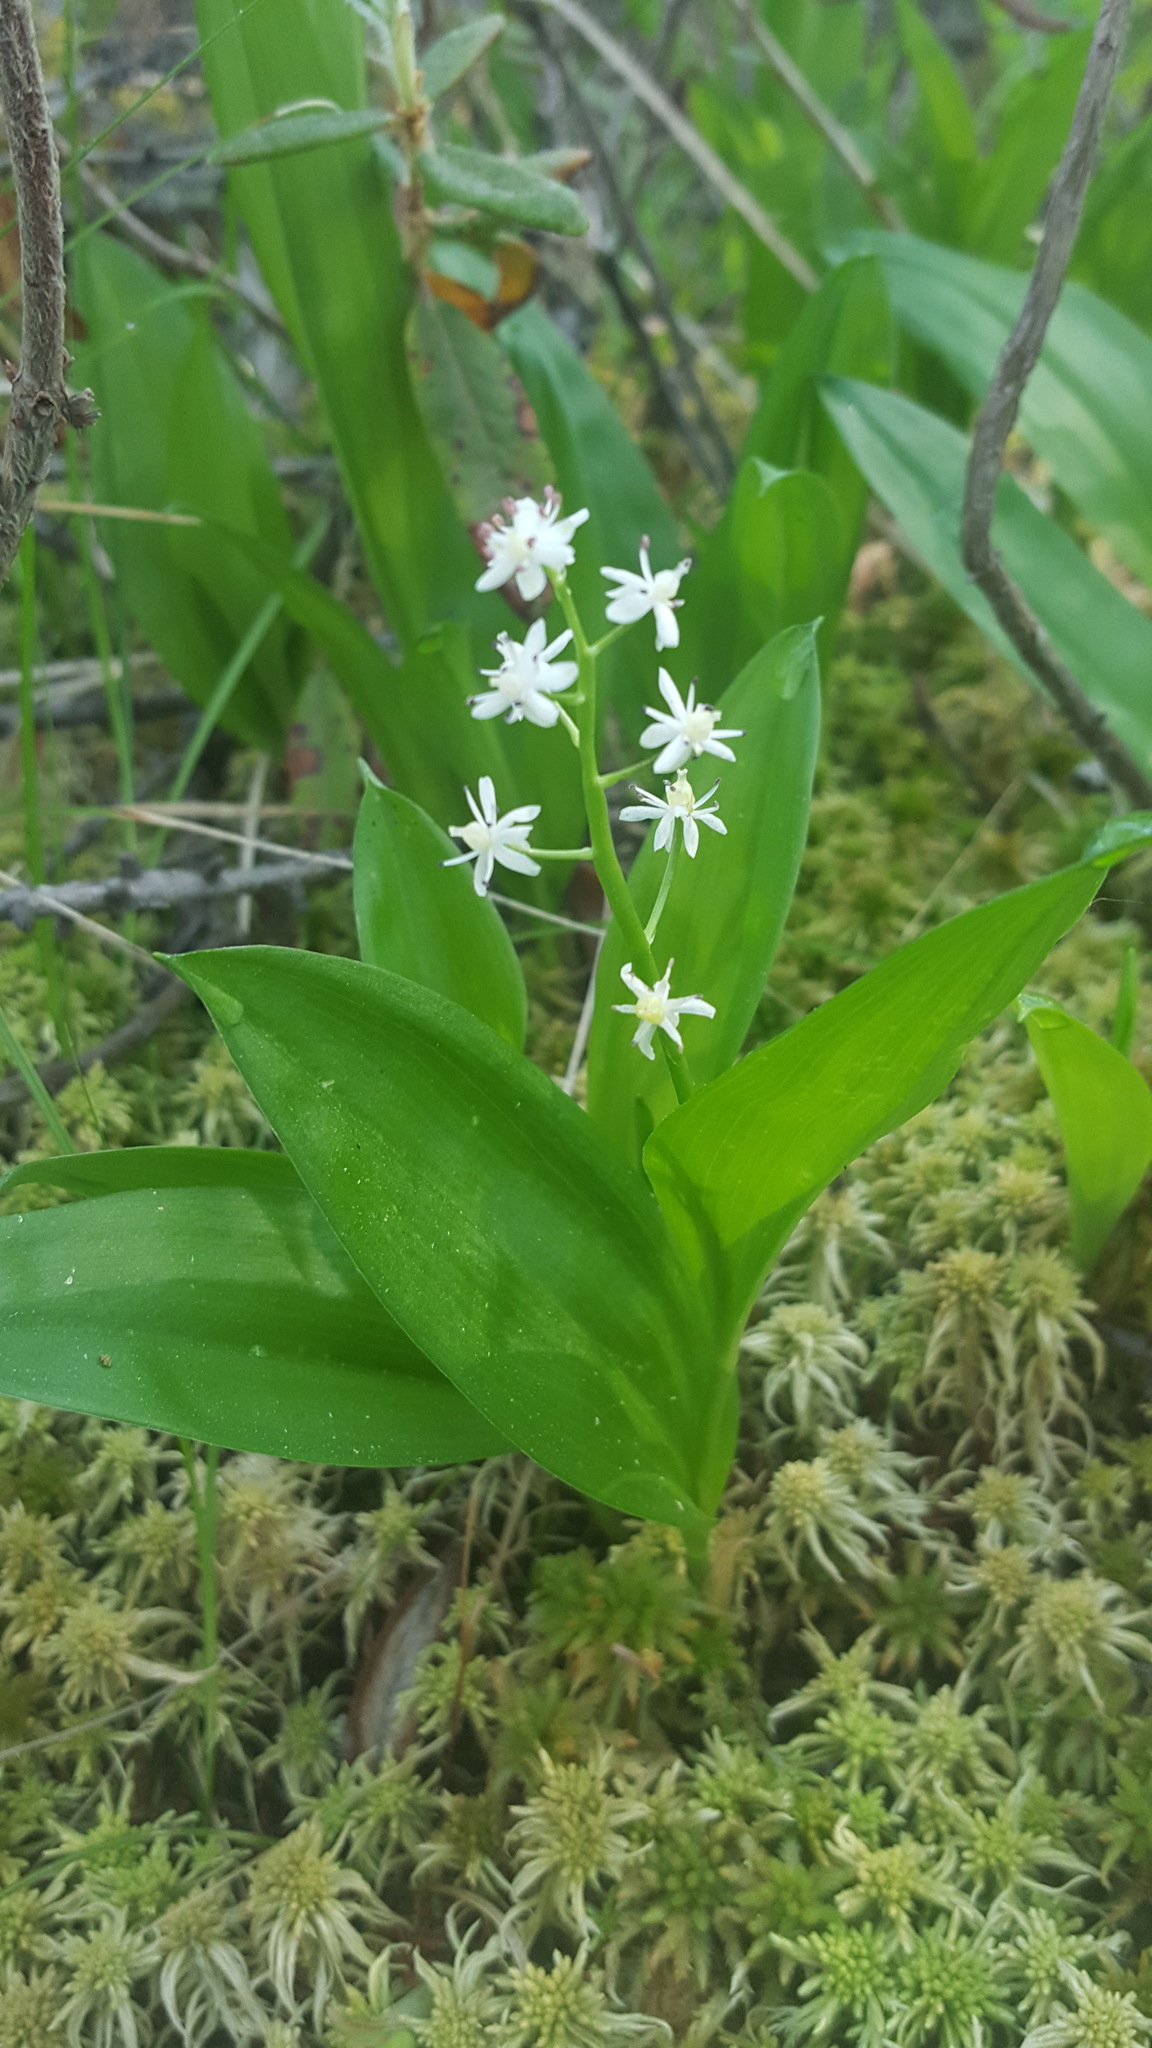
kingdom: Plantae
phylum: Tracheophyta
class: Liliopsida
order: Asparagales
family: Asparagaceae
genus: Maianthemum
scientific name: Maianthemum trifolium
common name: Swamp false solomon's seal
